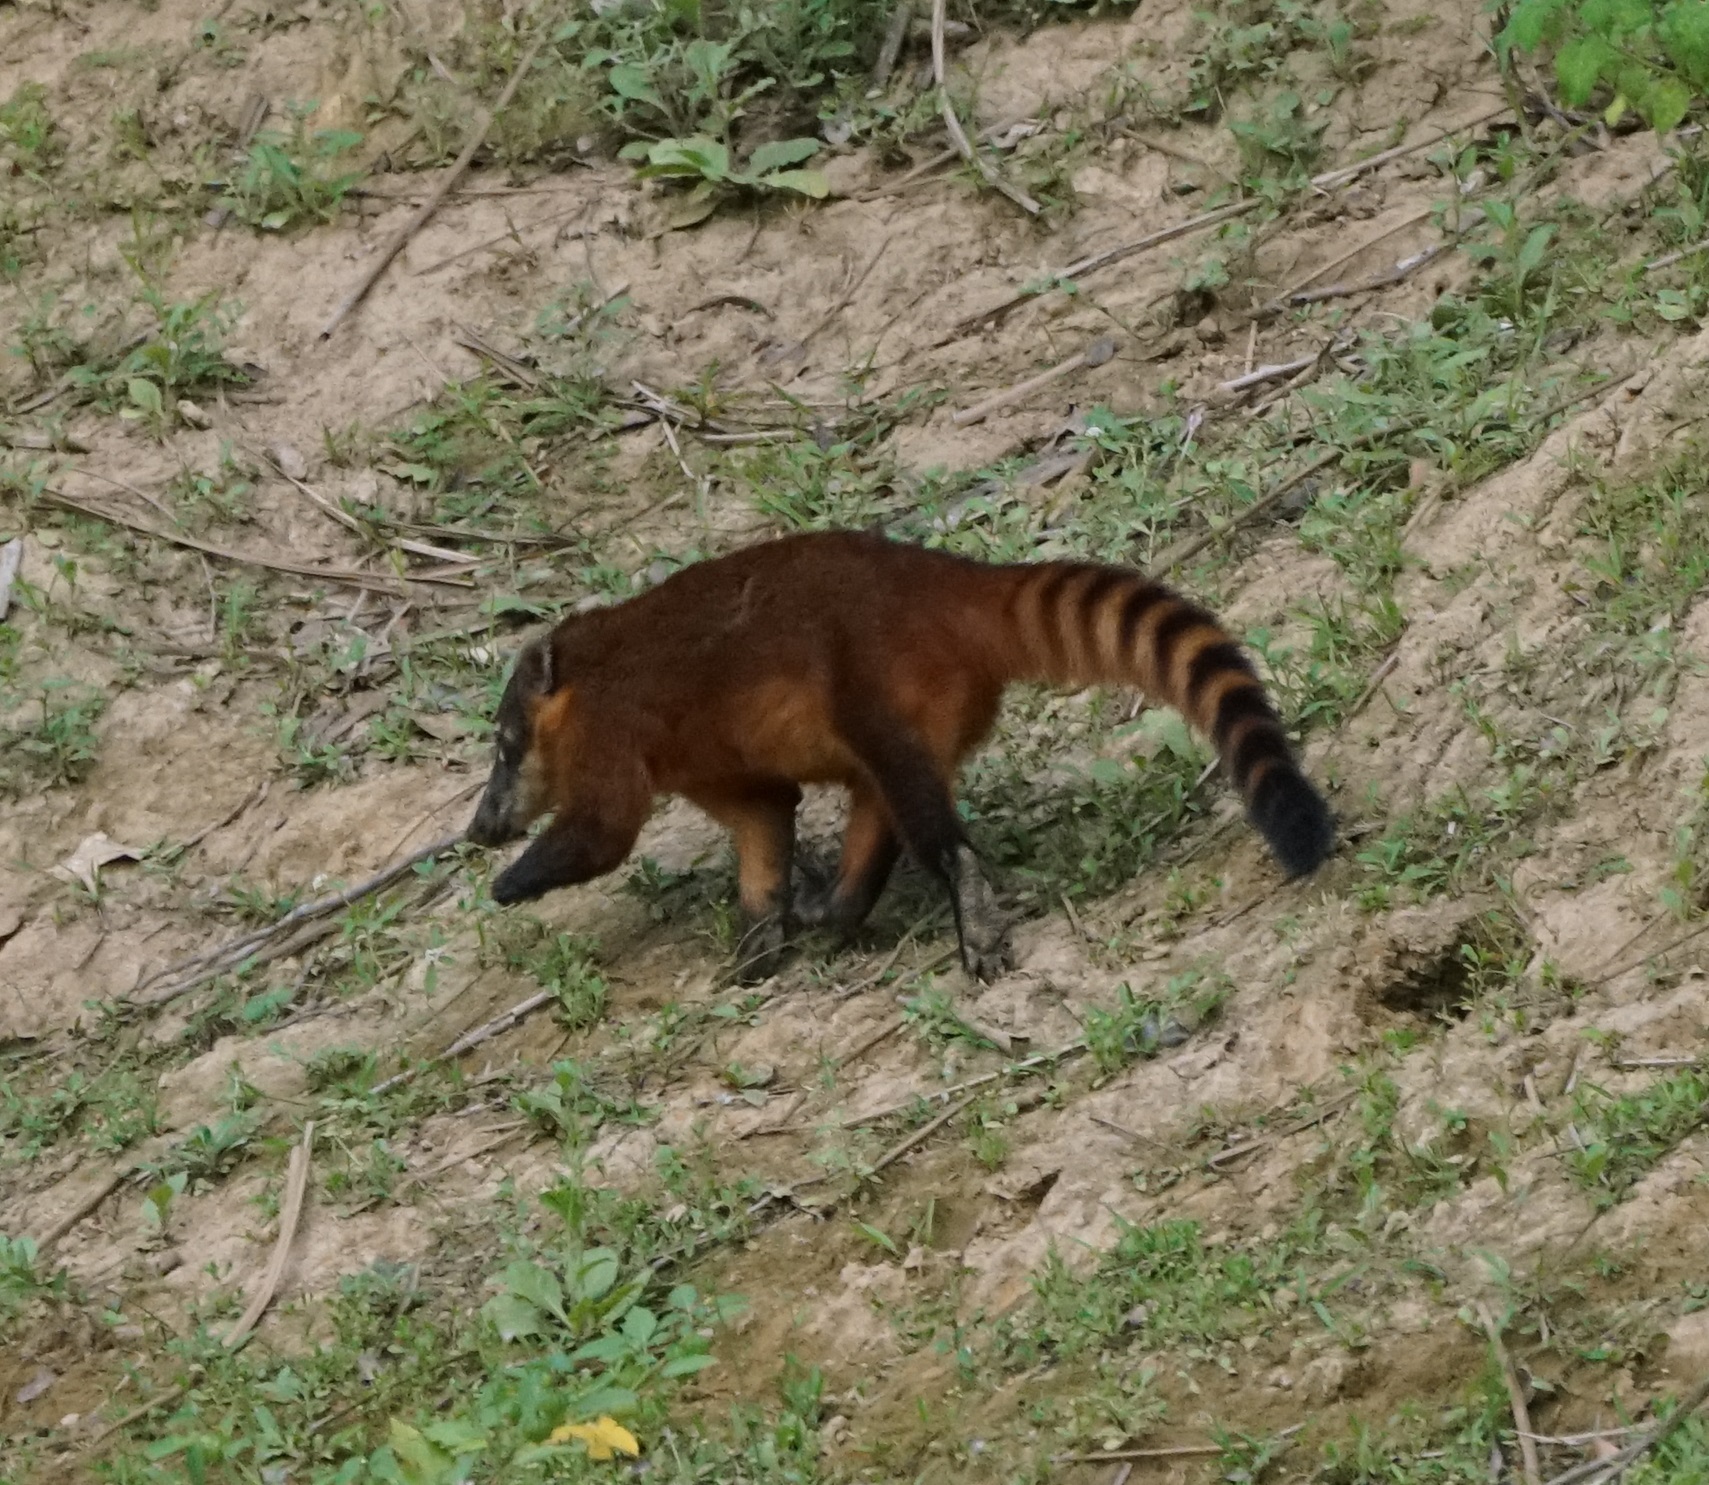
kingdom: Animalia
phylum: Chordata
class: Mammalia
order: Carnivora
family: Procyonidae
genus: Nasua
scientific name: Nasua nasua
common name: South american coati
